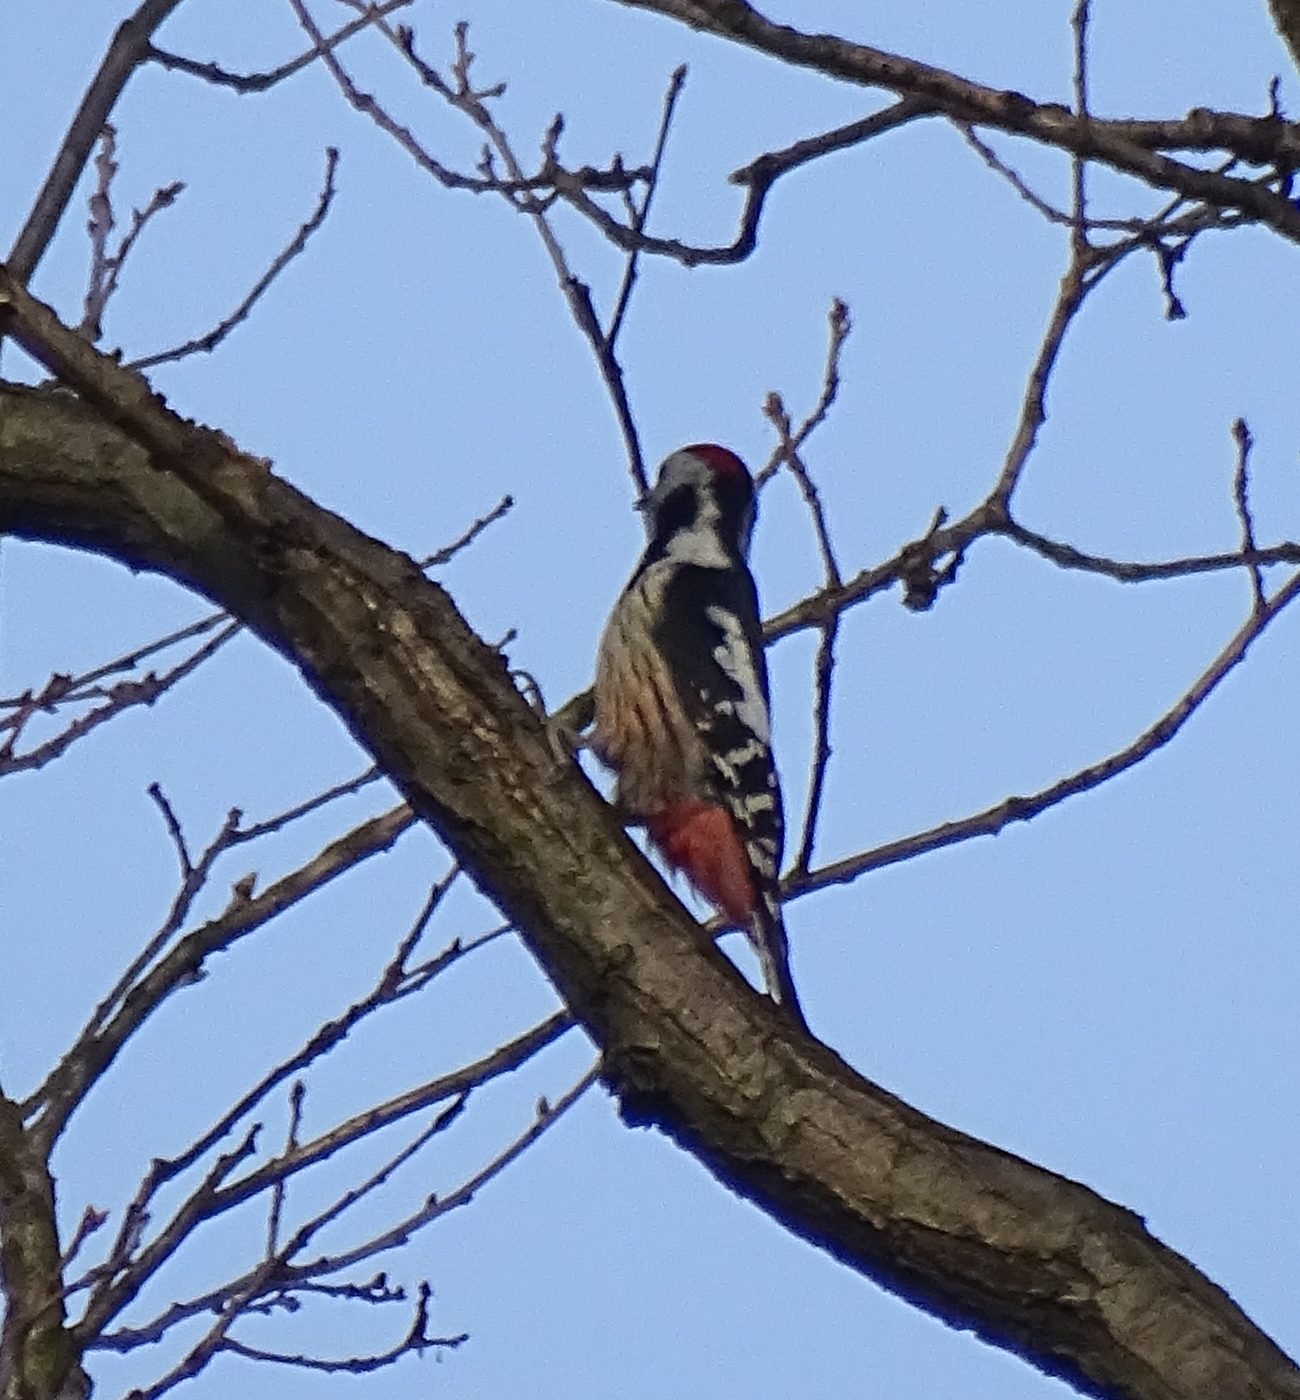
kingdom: Animalia
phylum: Chordata
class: Aves
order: Piciformes
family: Picidae
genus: Dendrocoptes
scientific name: Dendrocoptes medius
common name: Middle spotted woodpecker
